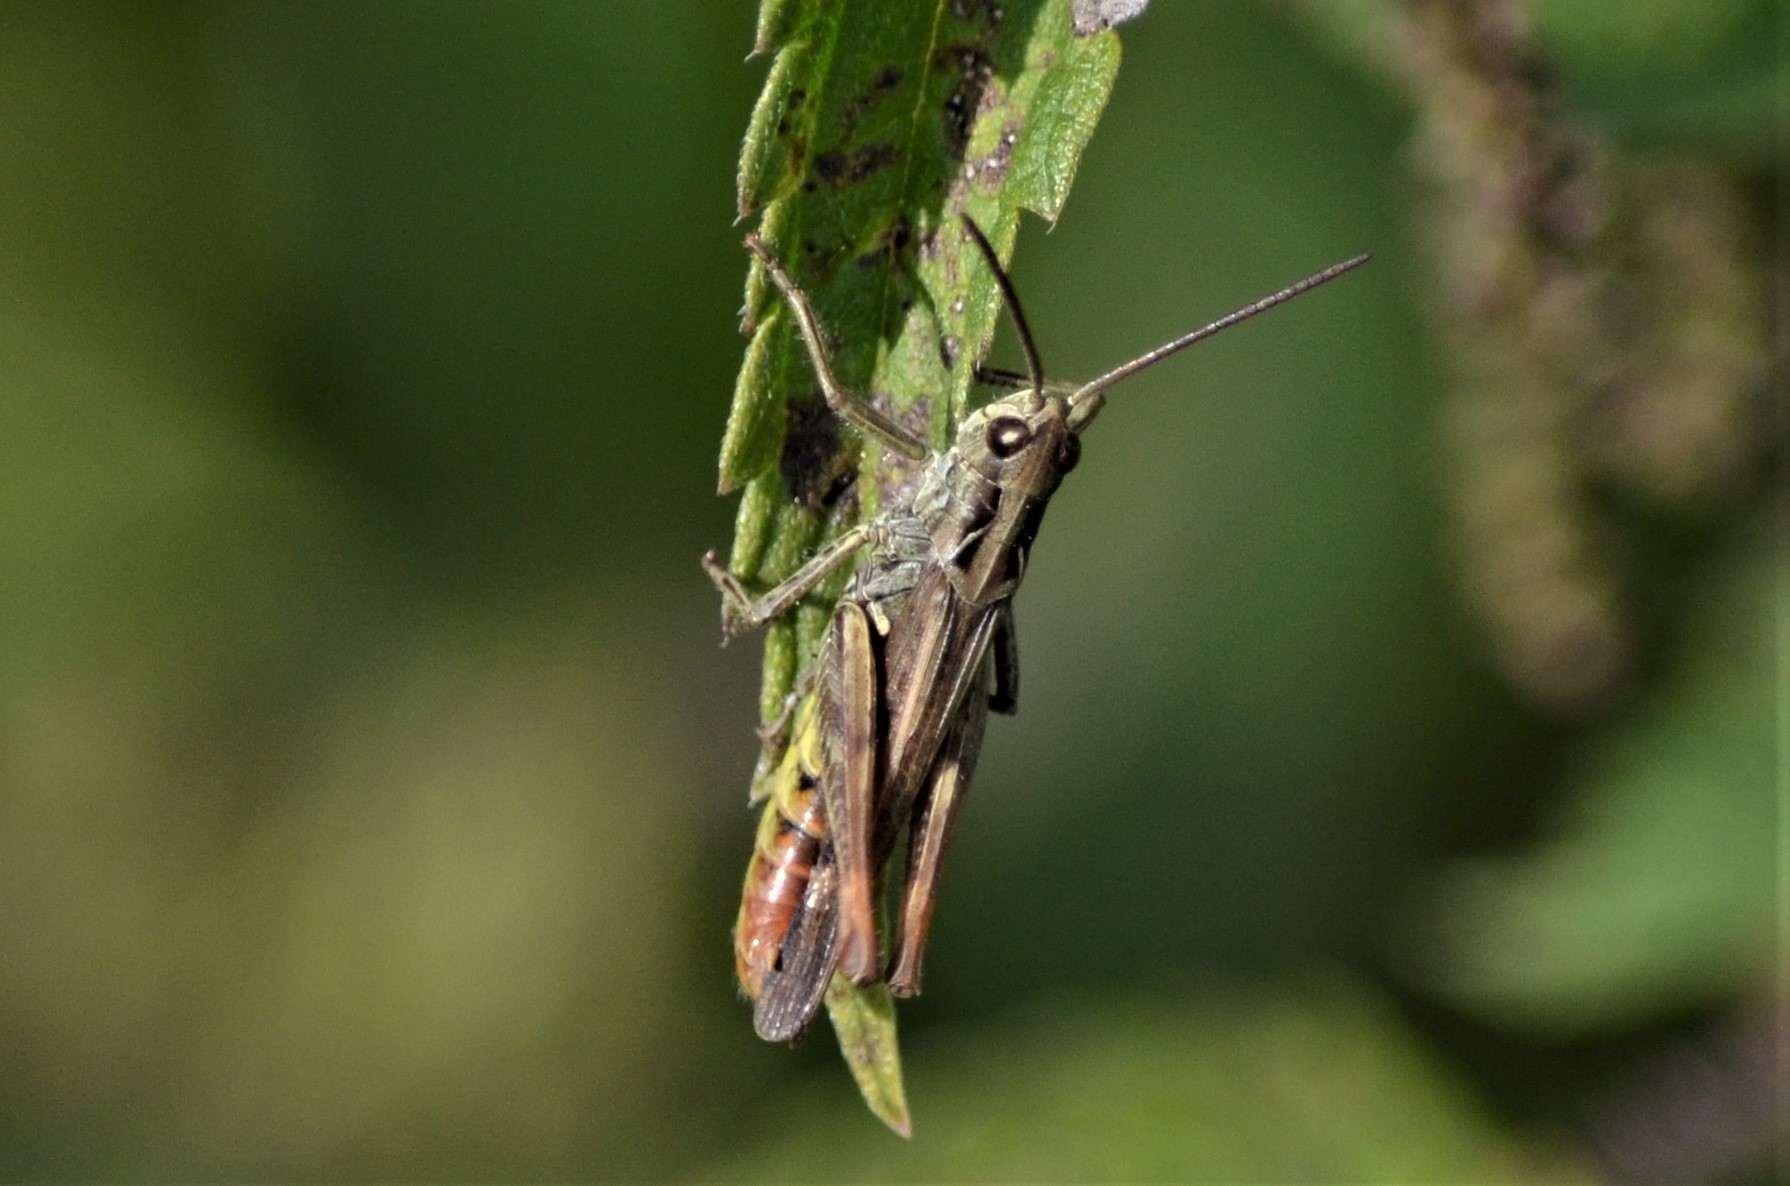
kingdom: Animalia
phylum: Arthropoda
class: Insecta
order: Orthoptera
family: Acrididae
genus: Chorthippus
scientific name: Chorthippus biguttulus
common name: Bow-winged grasshopper
